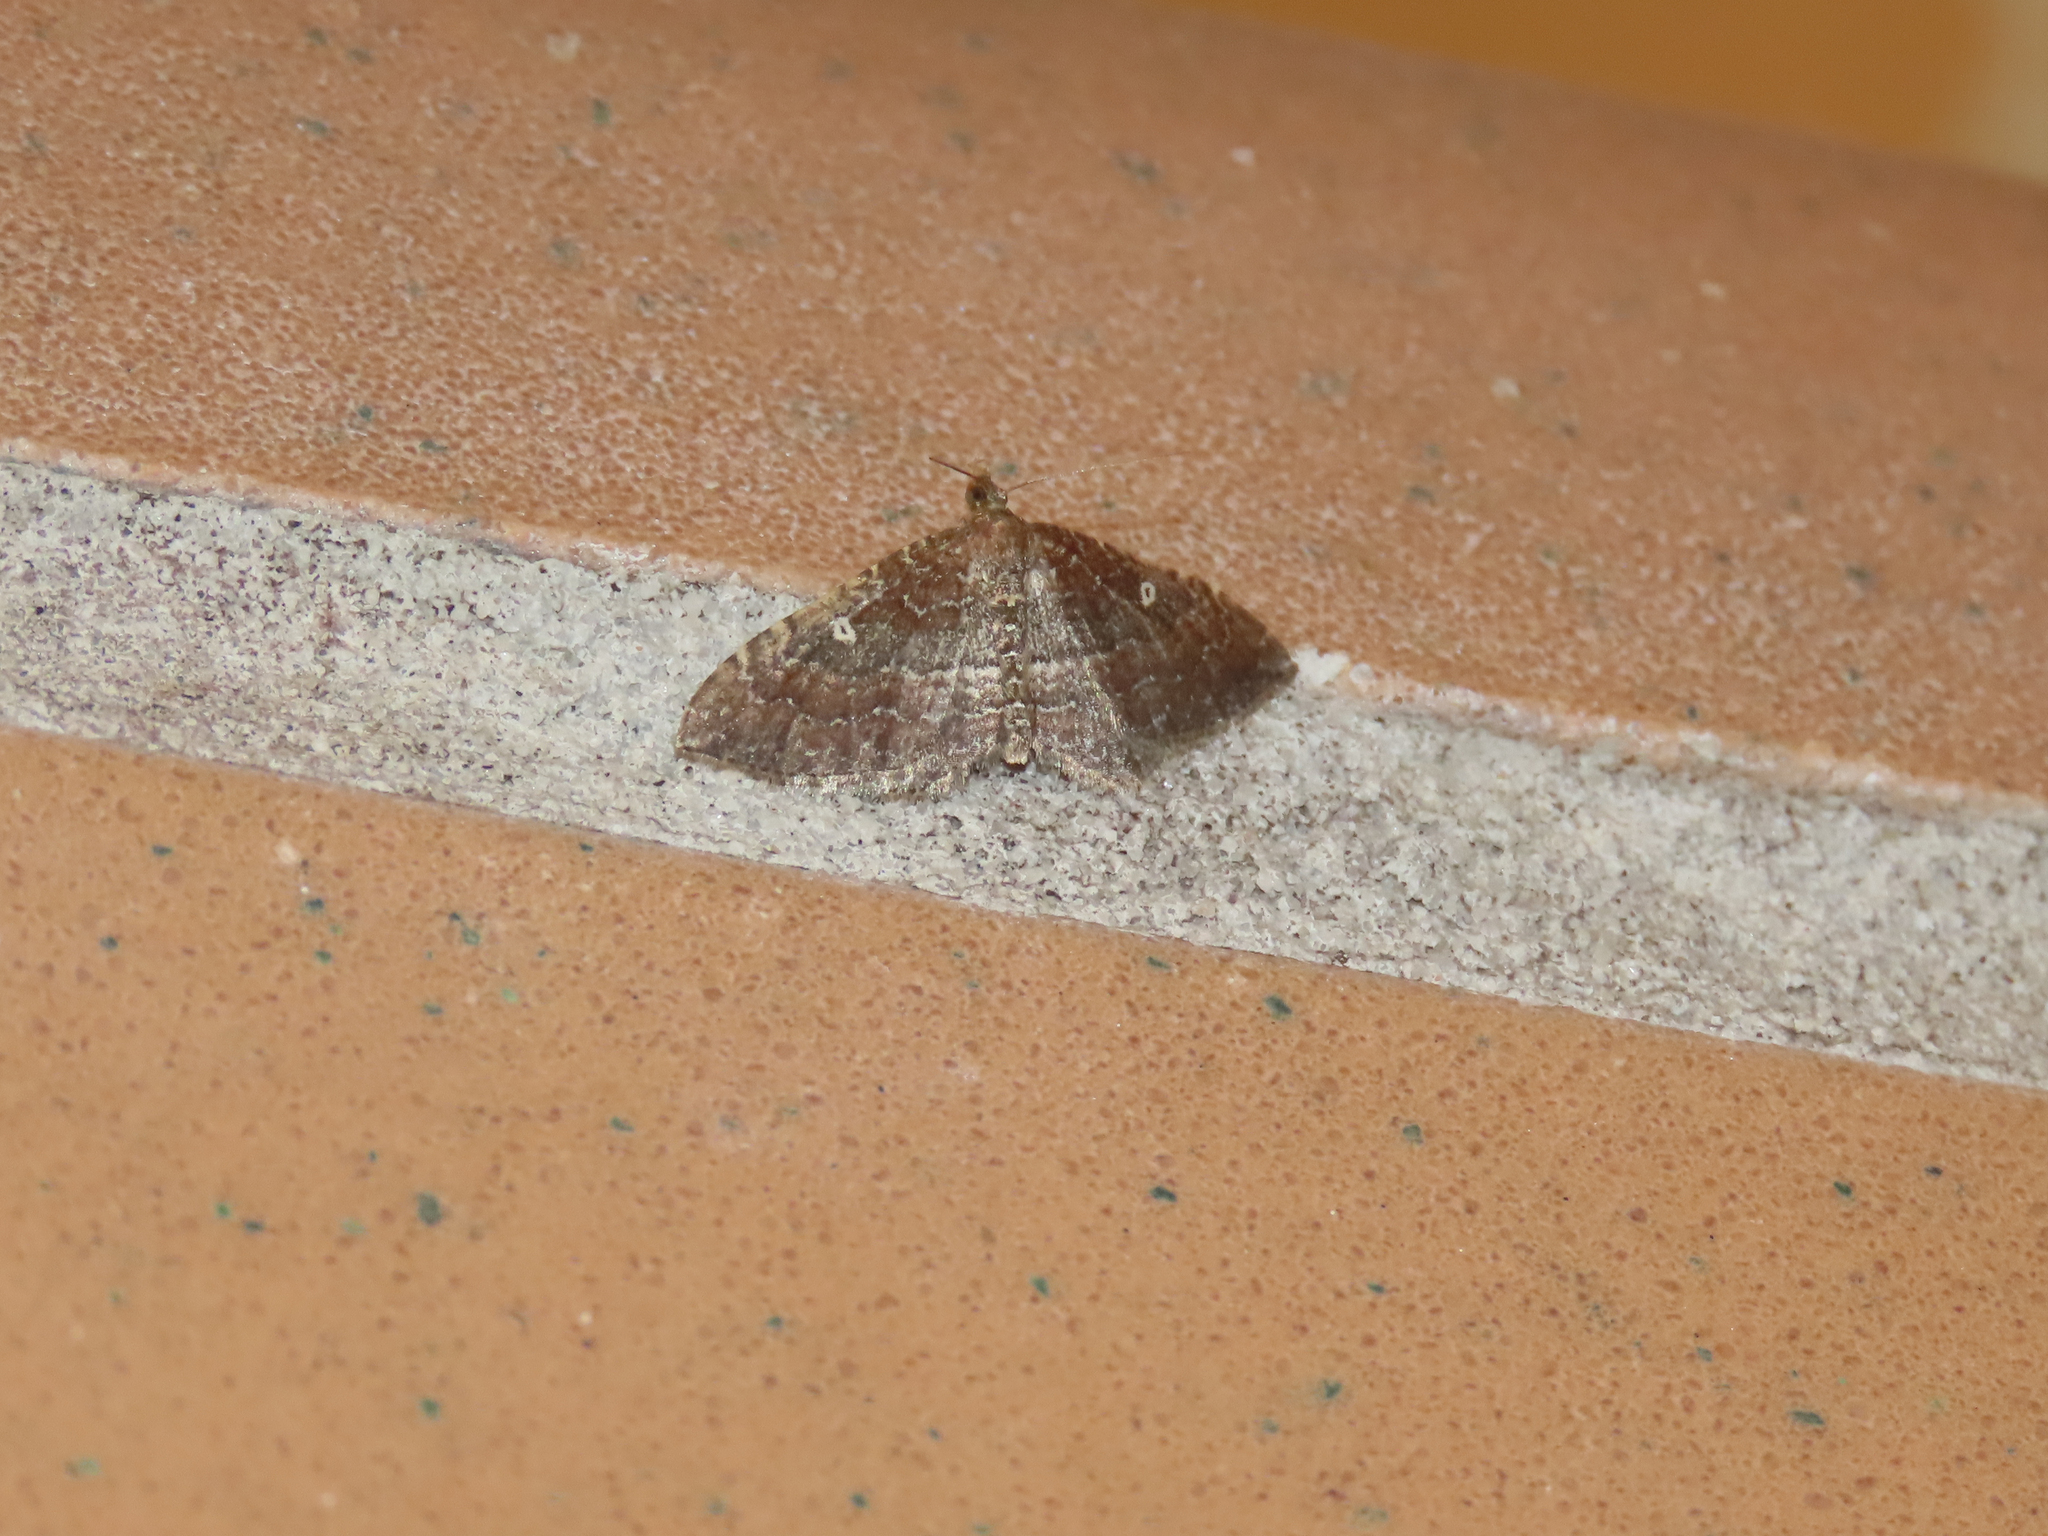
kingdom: Animalia
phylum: Arthropoda
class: Insecta
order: Lepidoptera
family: Geometridae
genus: Orthonama
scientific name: Orthonama obstipata
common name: The gem
